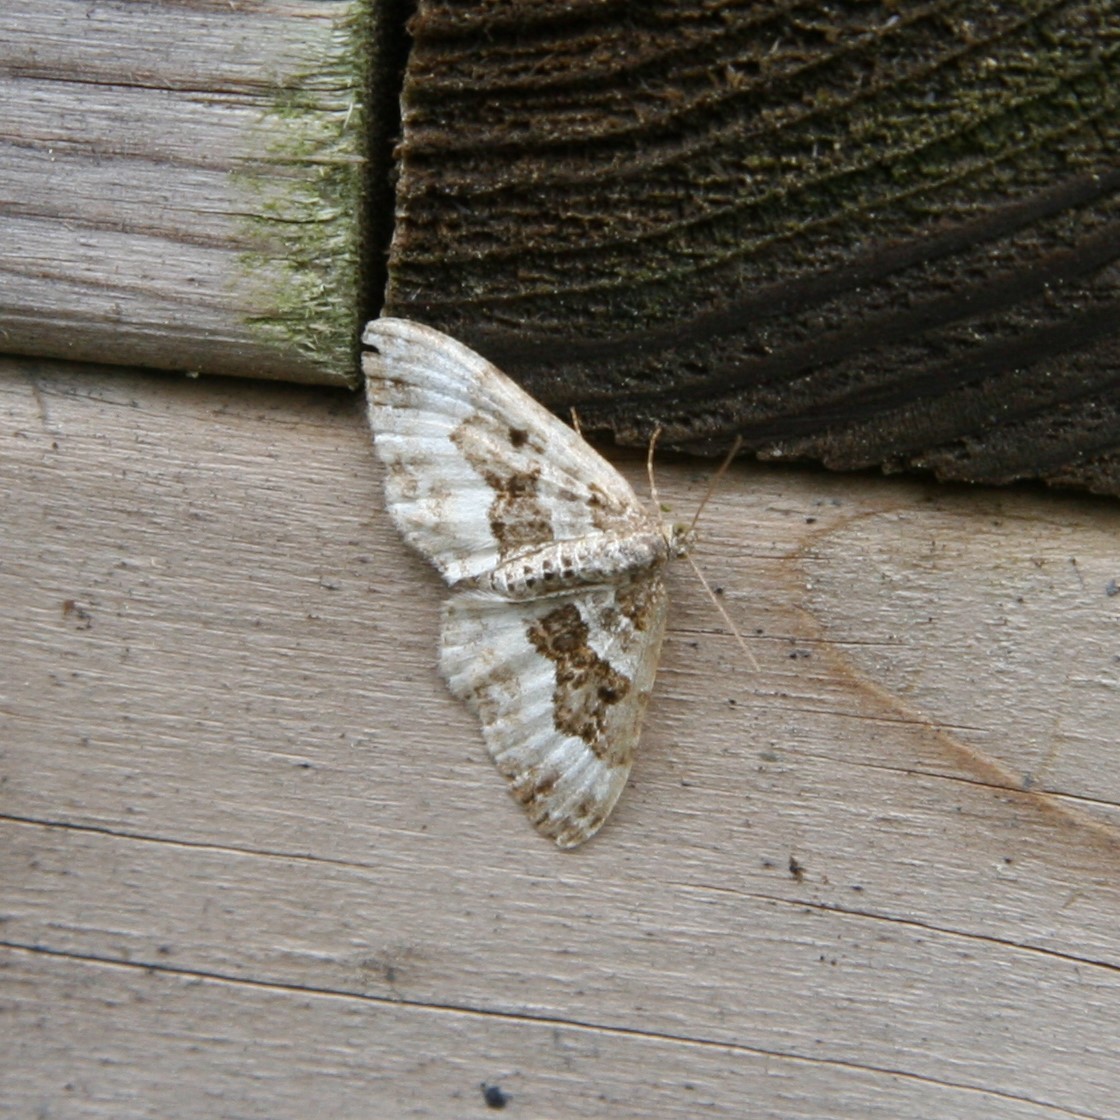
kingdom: Animalia
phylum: Arthropoda
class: Insecta
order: Lepidoptera
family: Geometridae
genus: Epirrhoe
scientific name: Epirrhoe alternata
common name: Common carpet
